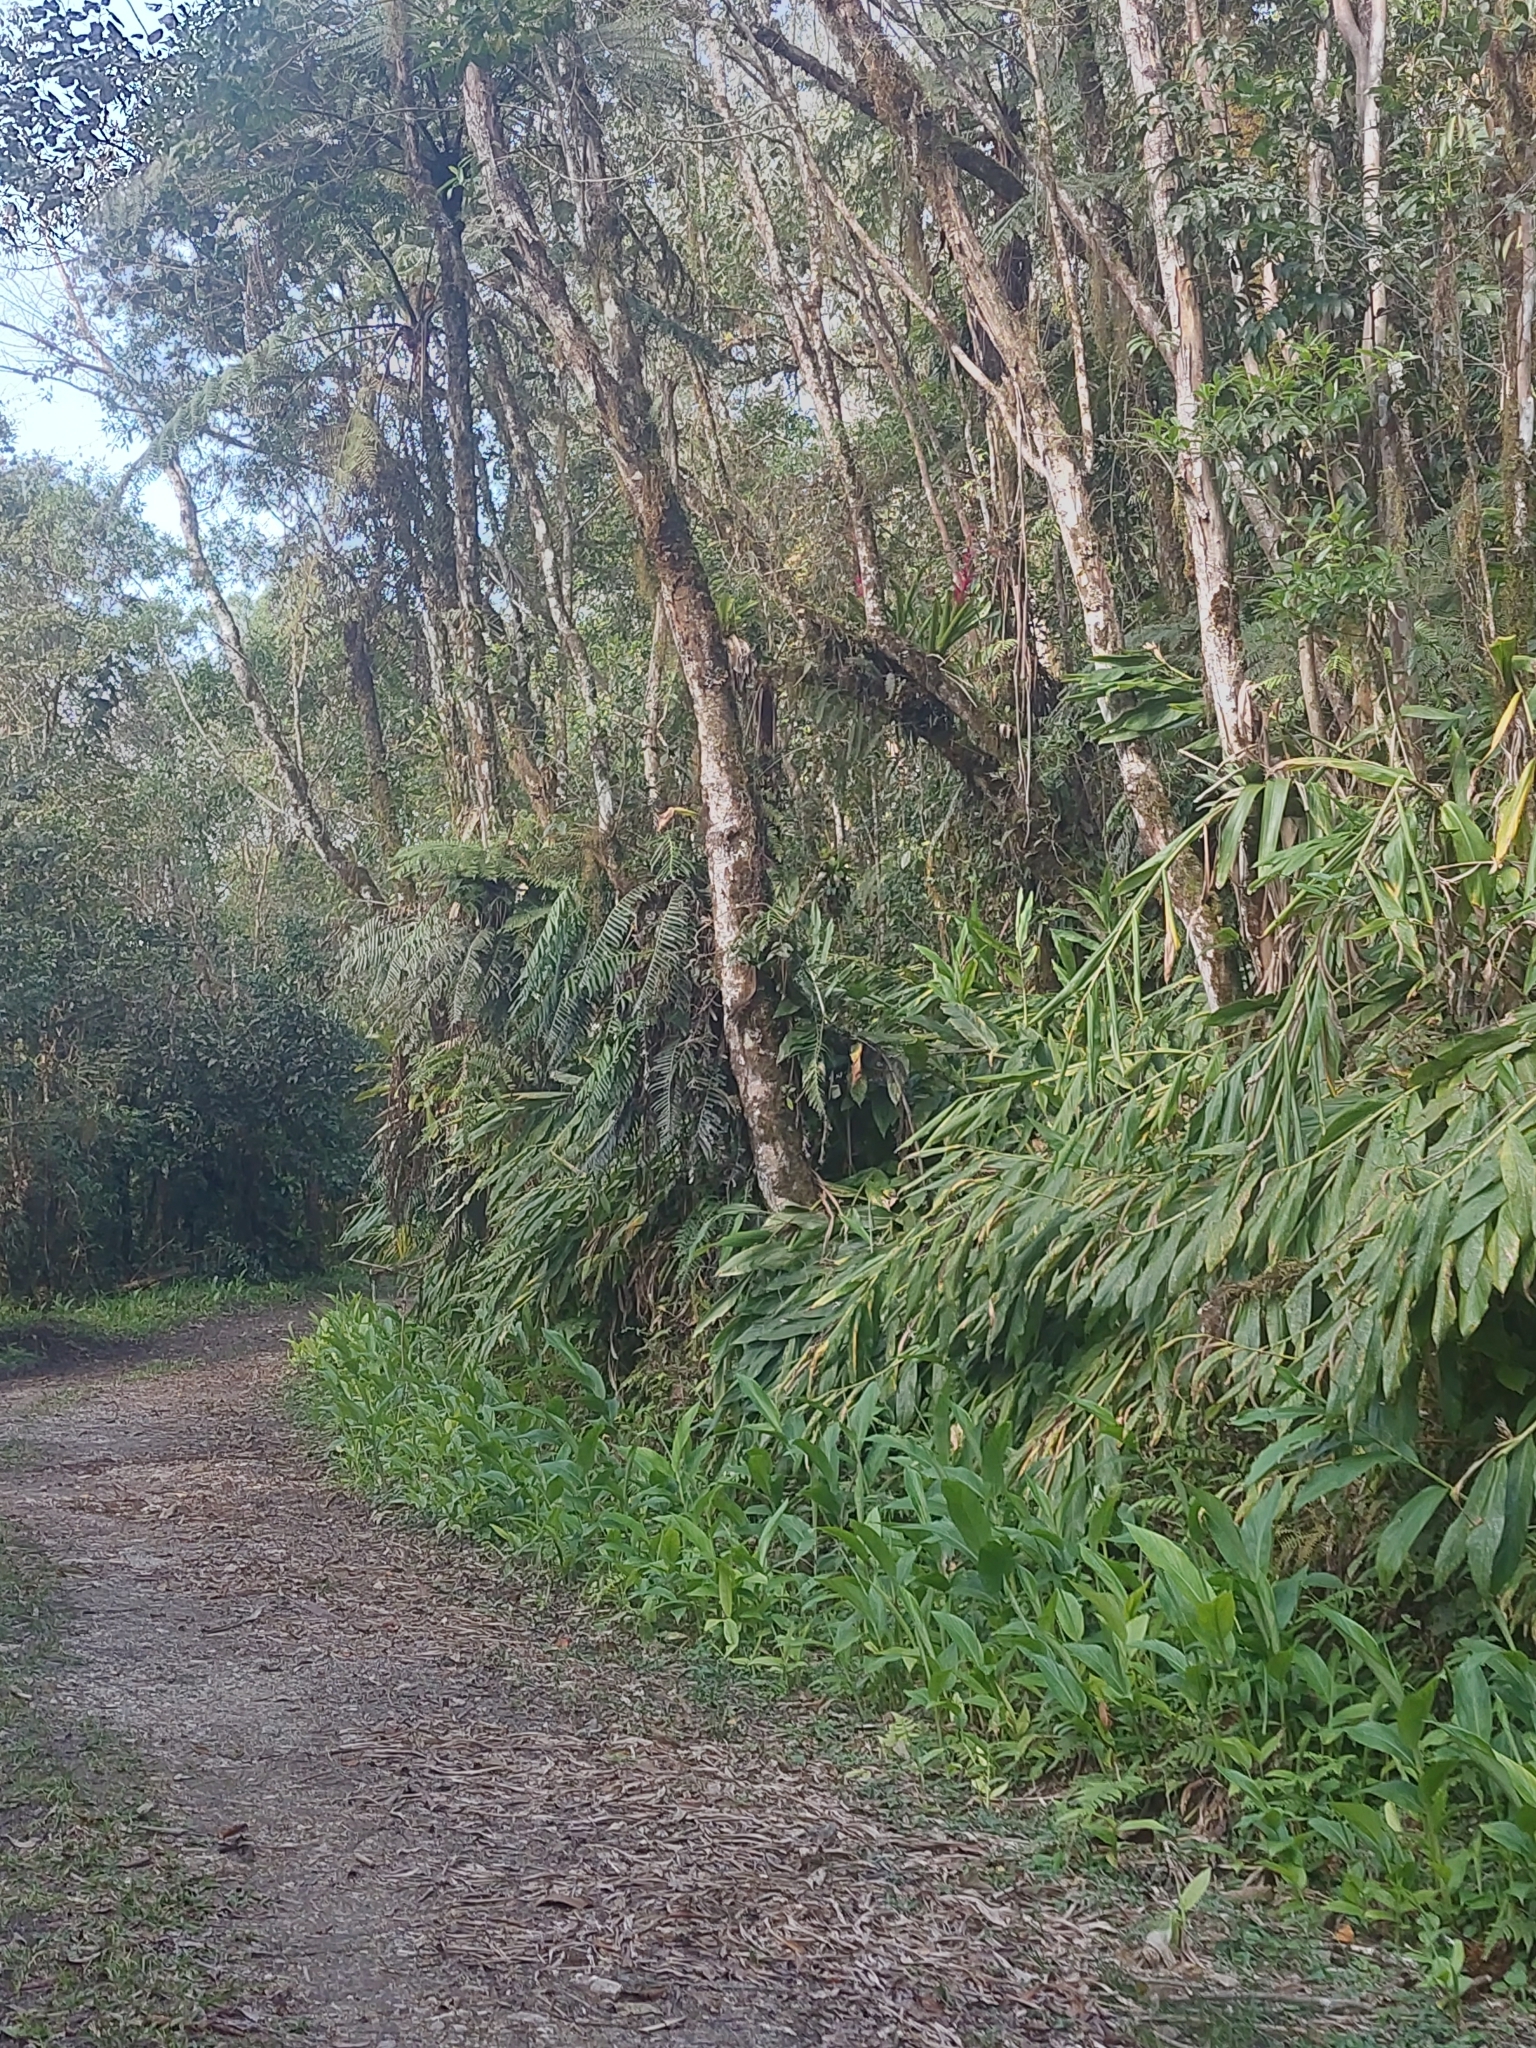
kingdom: Plantae
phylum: Tracheophyta
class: Liliopsida
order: Zingiberales
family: Zingiberaceae
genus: Hedychium
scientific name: Hedychium coronarium
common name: White garland-lily
